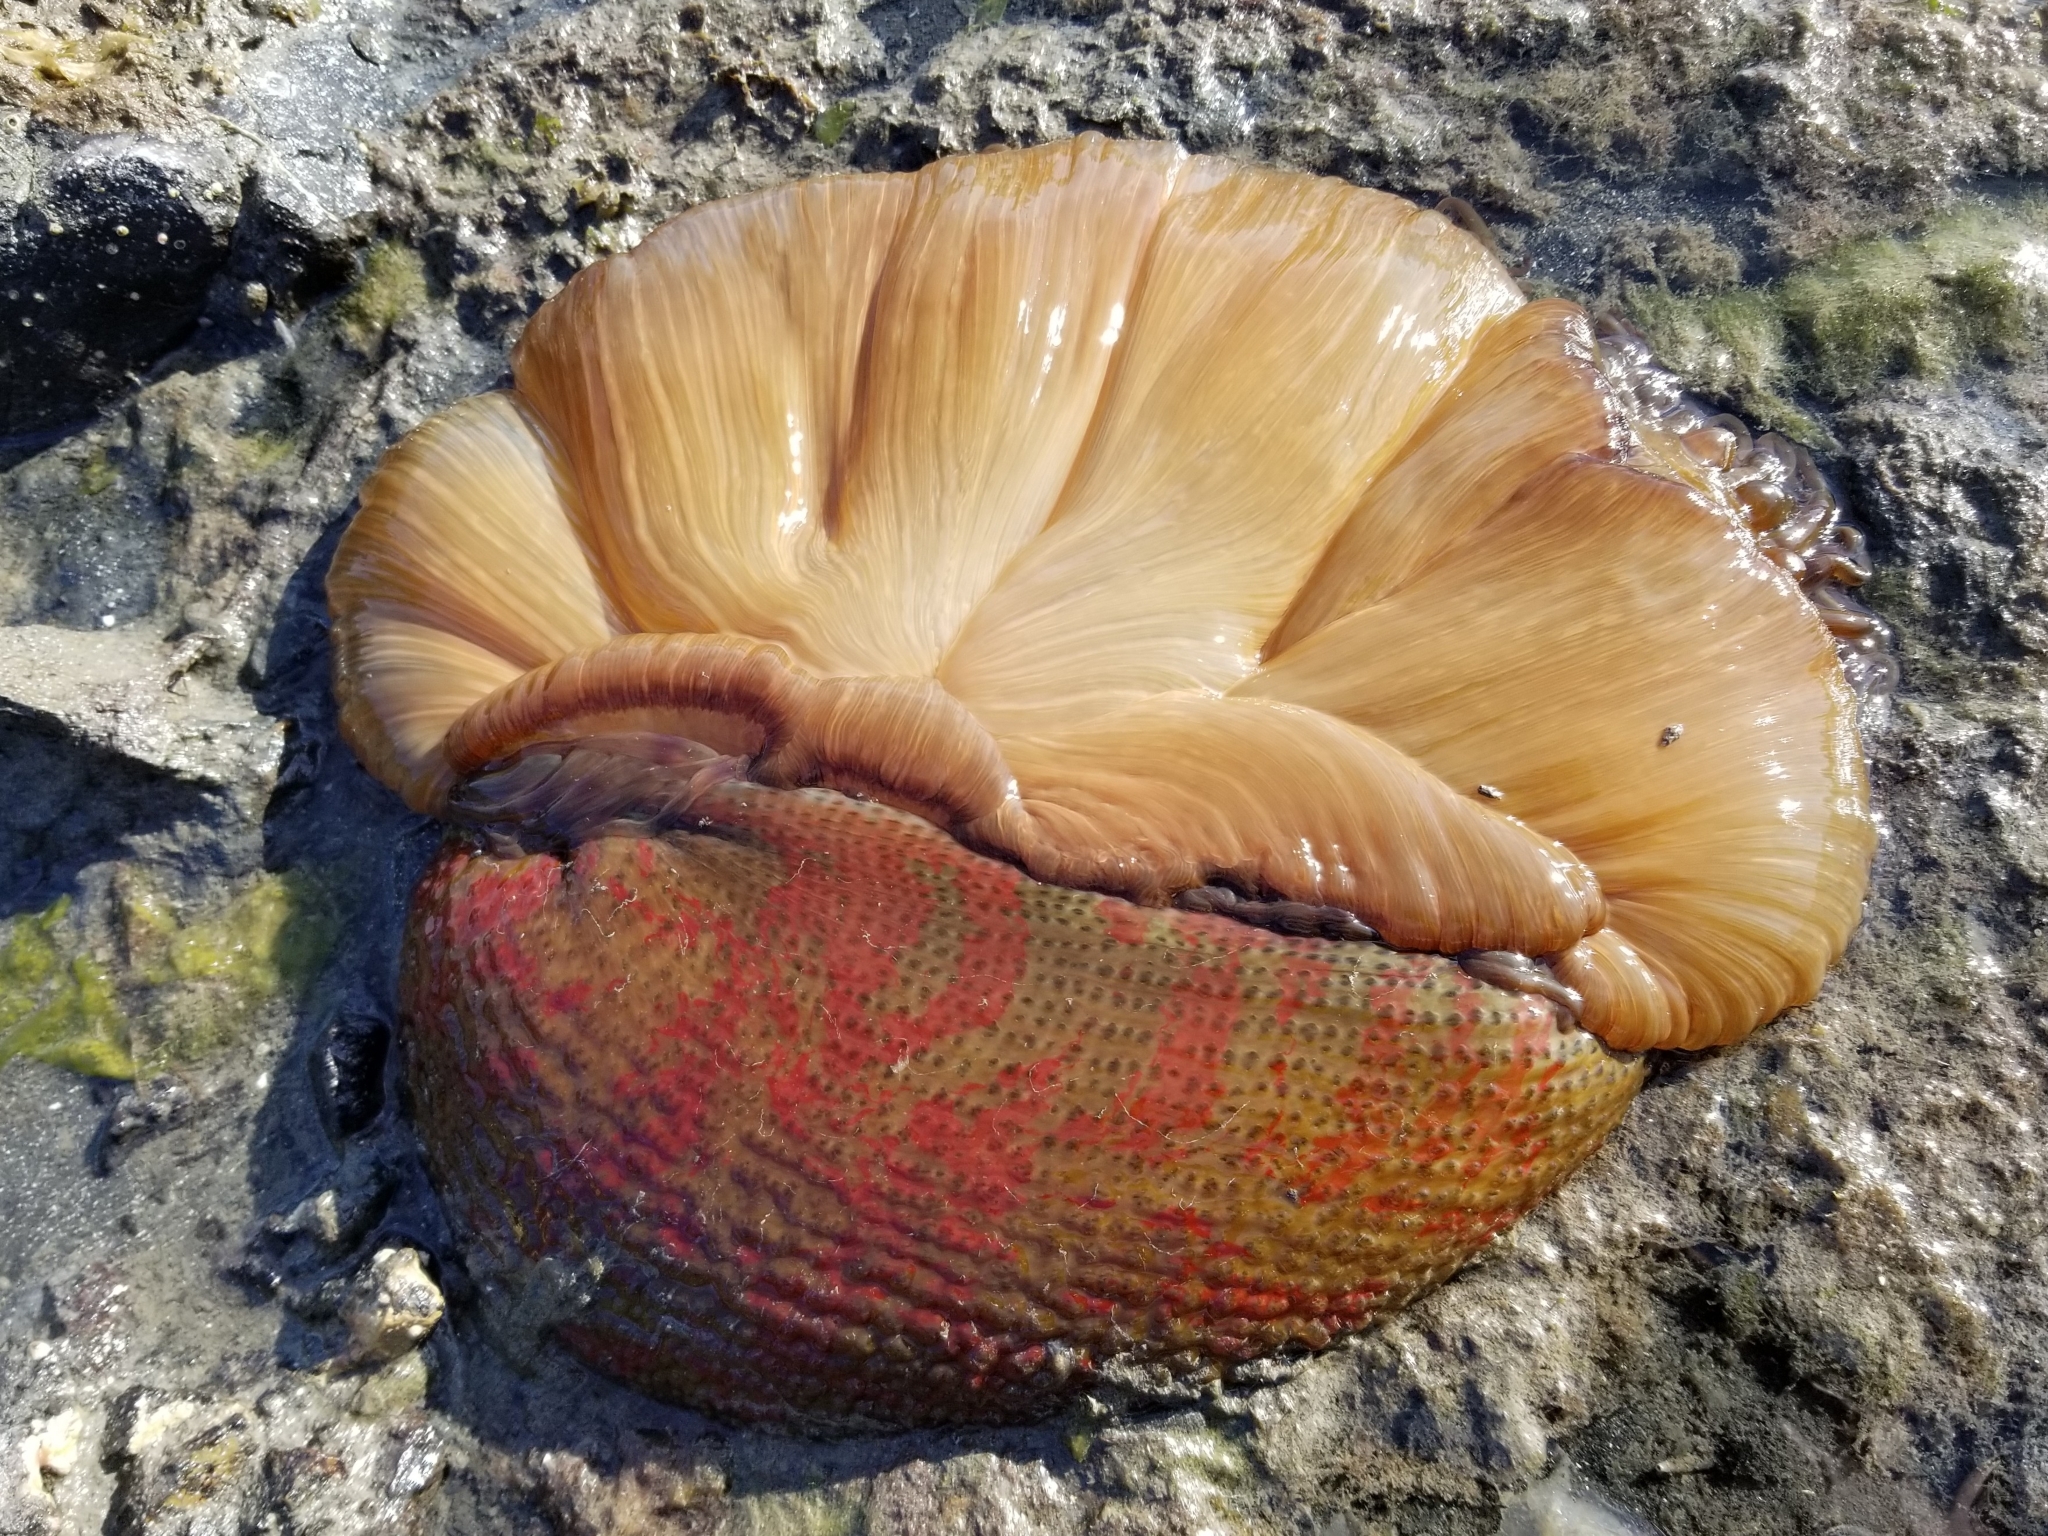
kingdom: Animalia
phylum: Cnidaria
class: Anthozoa
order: Actiniaria
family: Actiniidae
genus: Urticina
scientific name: Urticina grebelnyi
